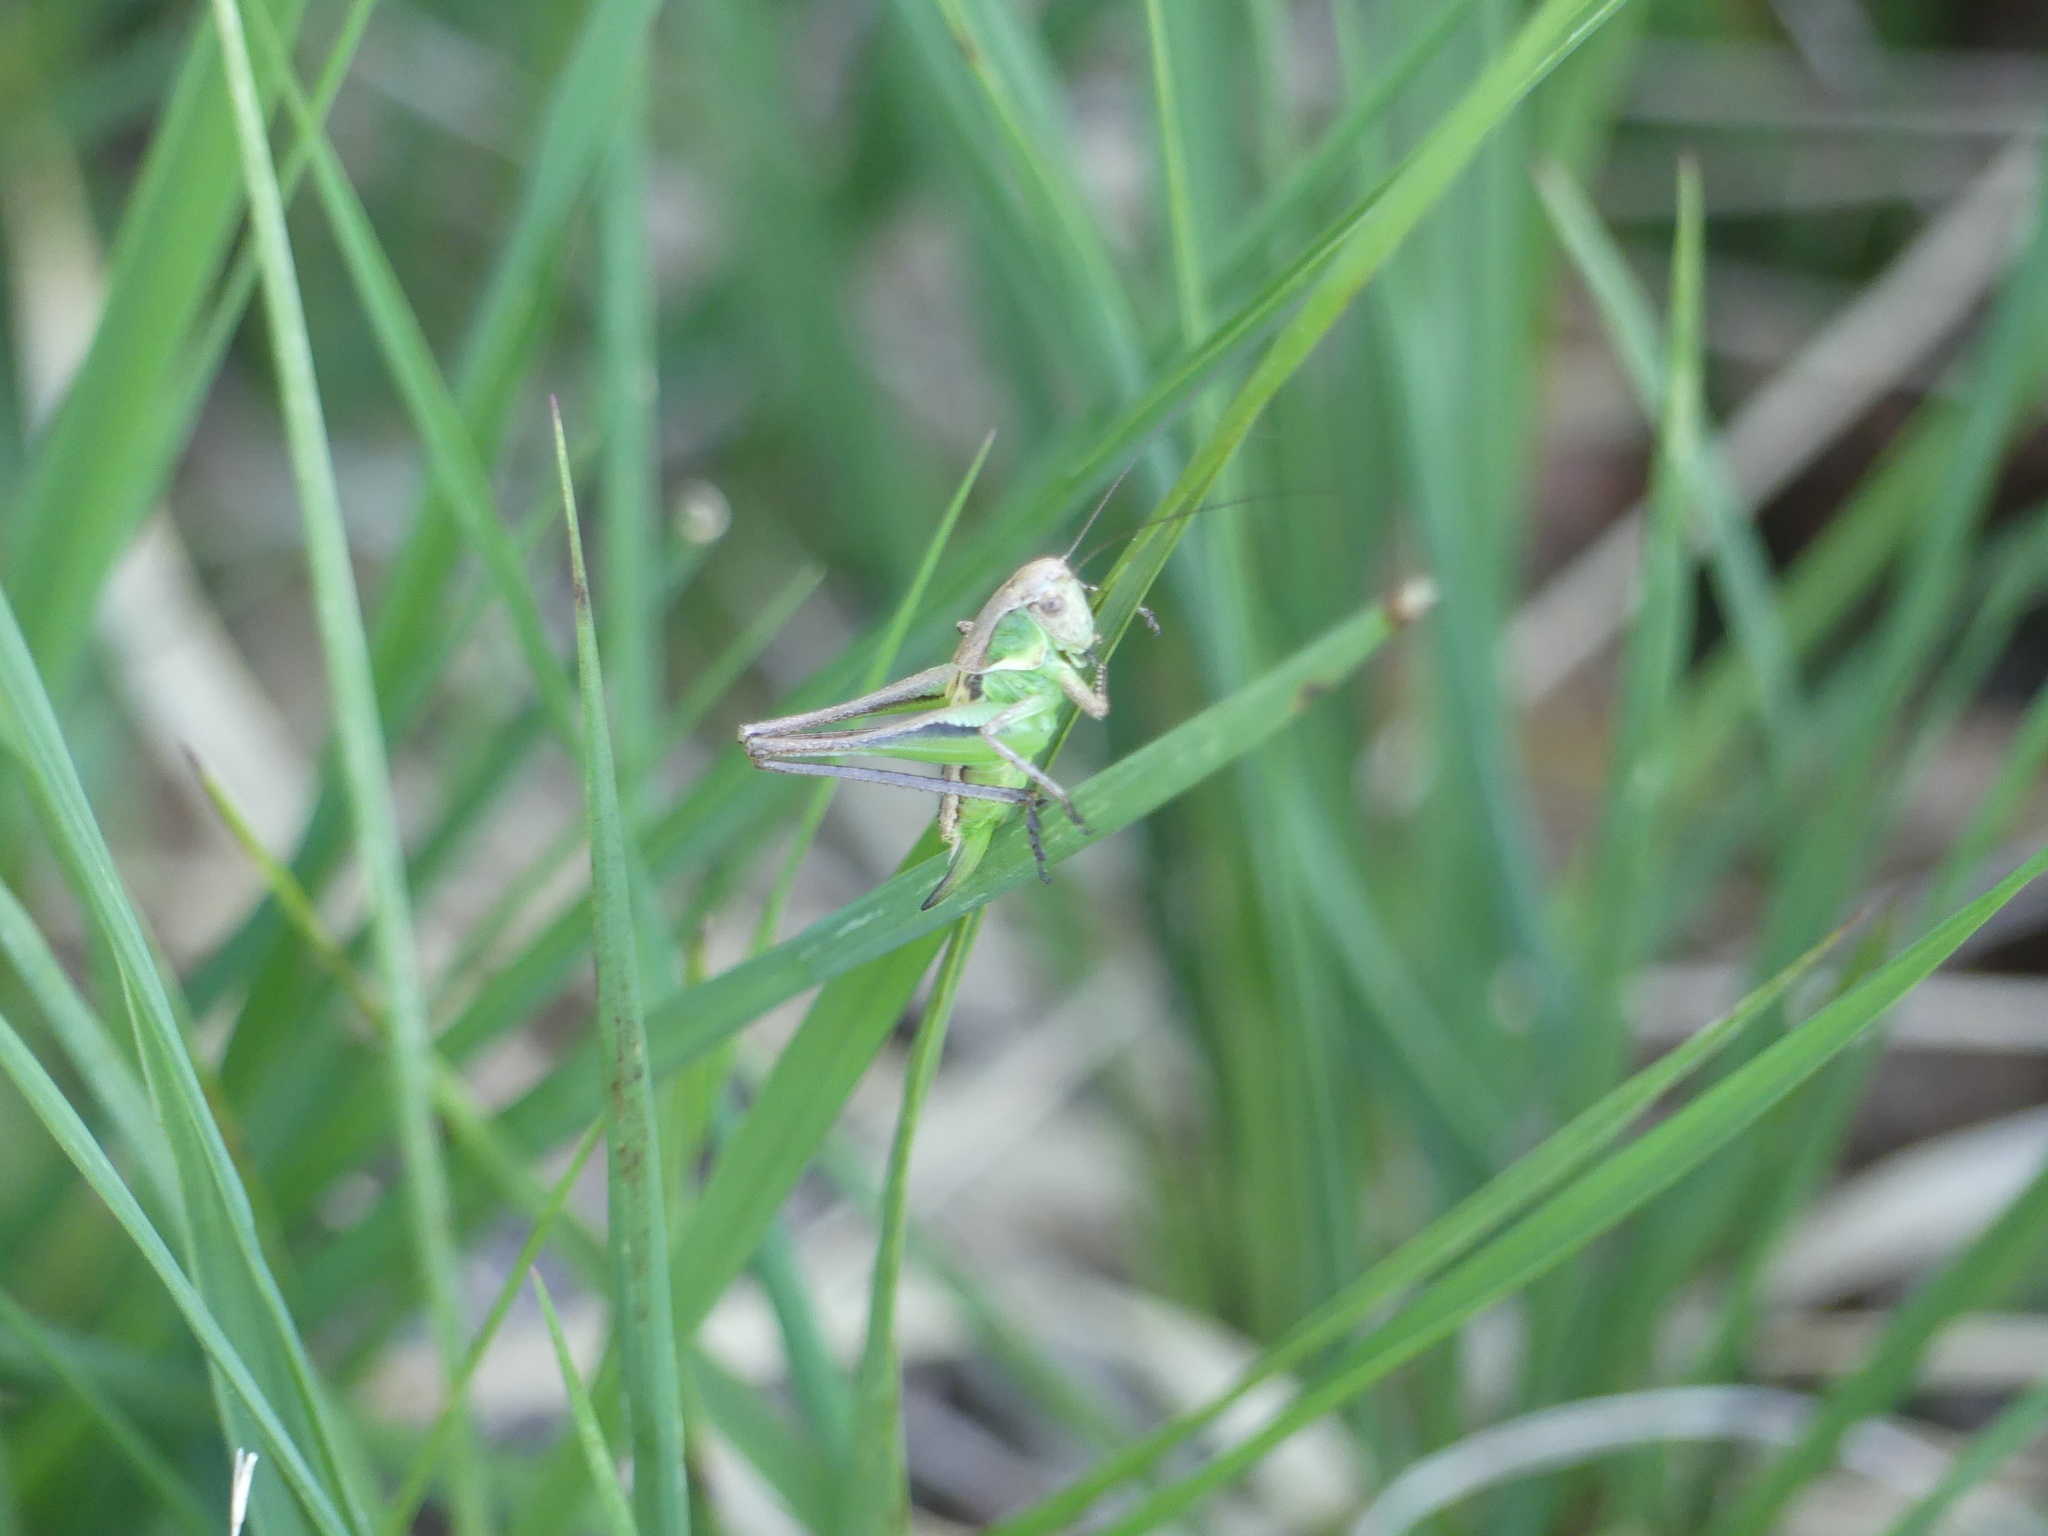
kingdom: Animalia
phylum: Arthropoda
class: Insecta
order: Orthoptera
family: Tettigoniidae
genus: Platycleis
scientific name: Platycleis grisea
